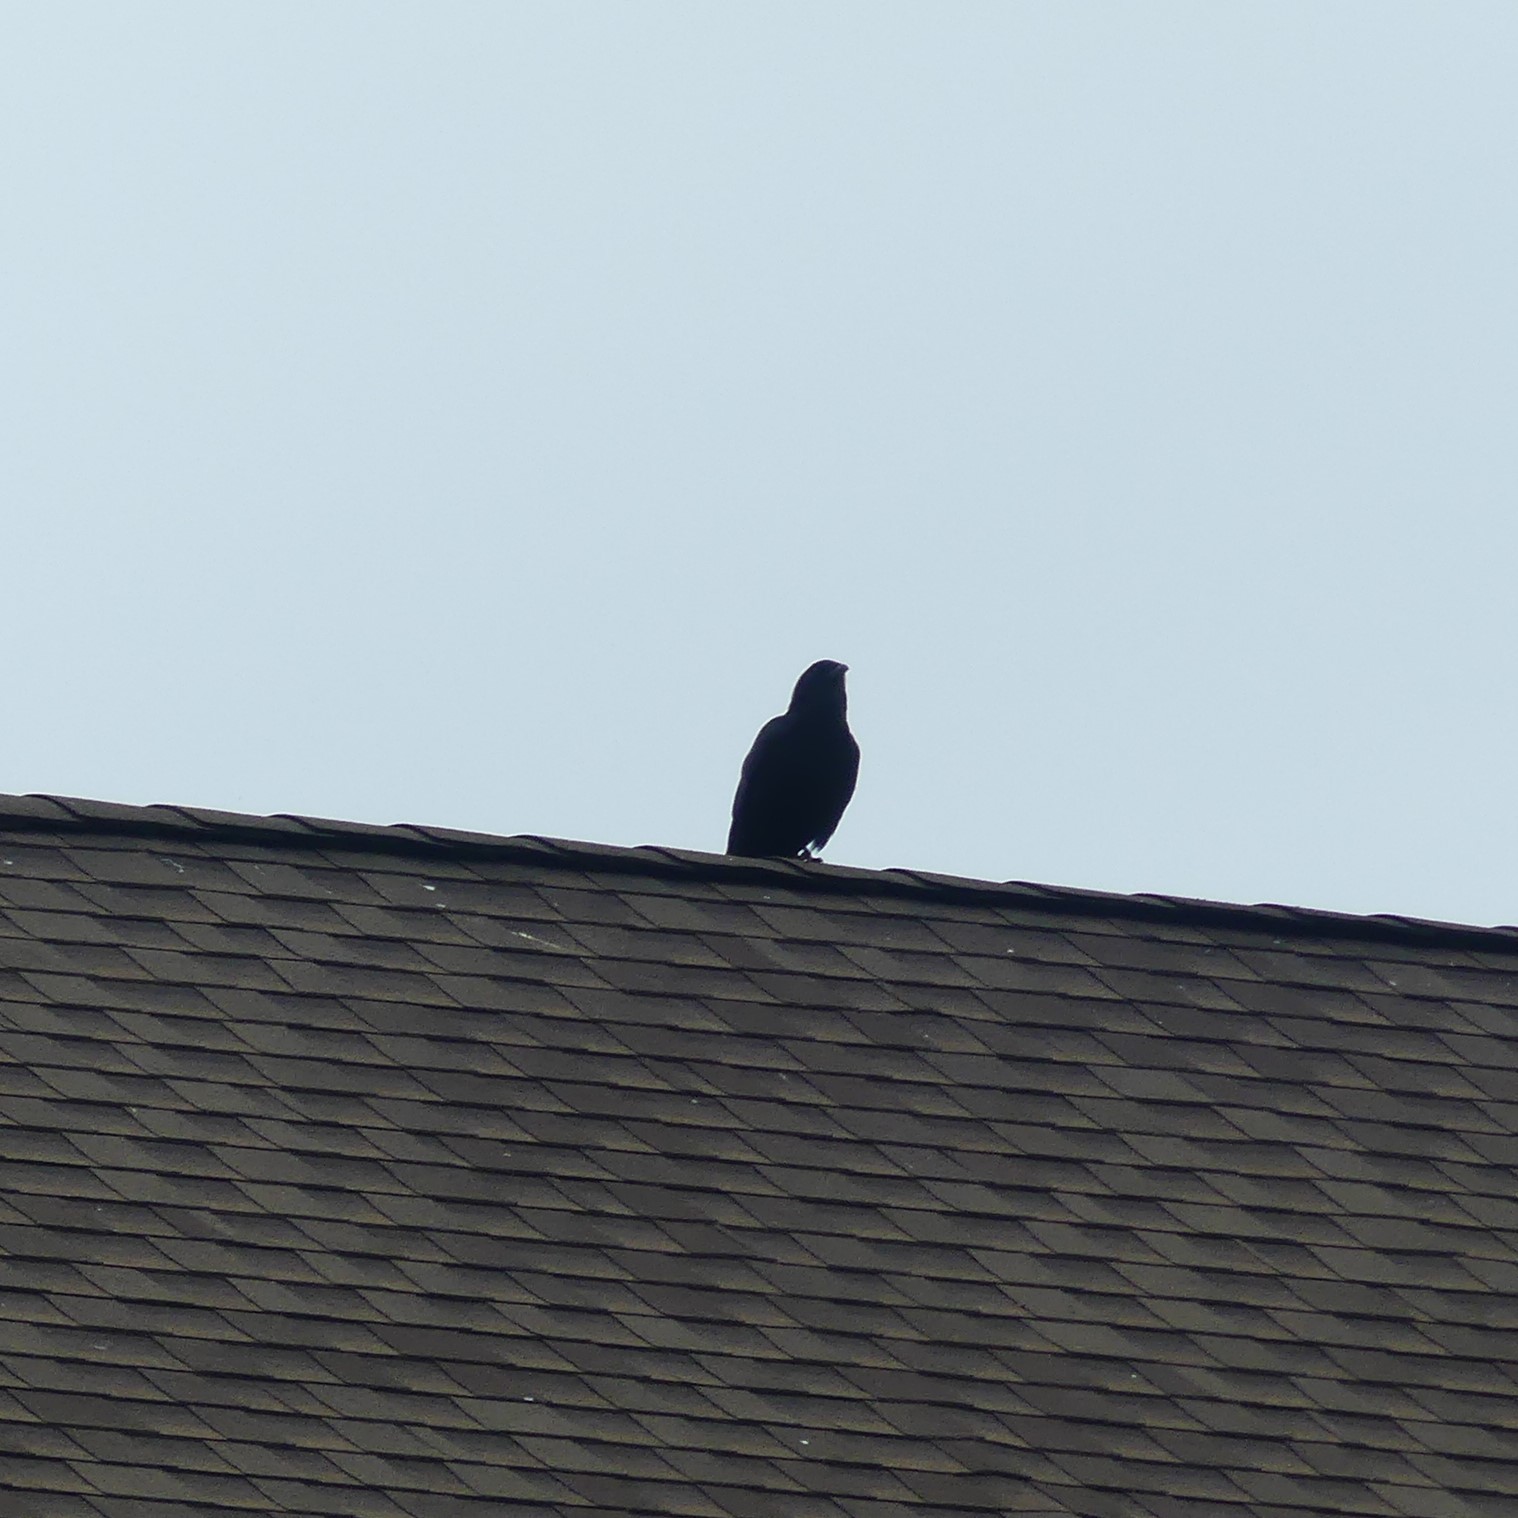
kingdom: Animalia
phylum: Chordata
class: Aves
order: Passeriformes
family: Corvidae
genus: Corvus
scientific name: Corvus brachyrhynchos
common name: American crow
